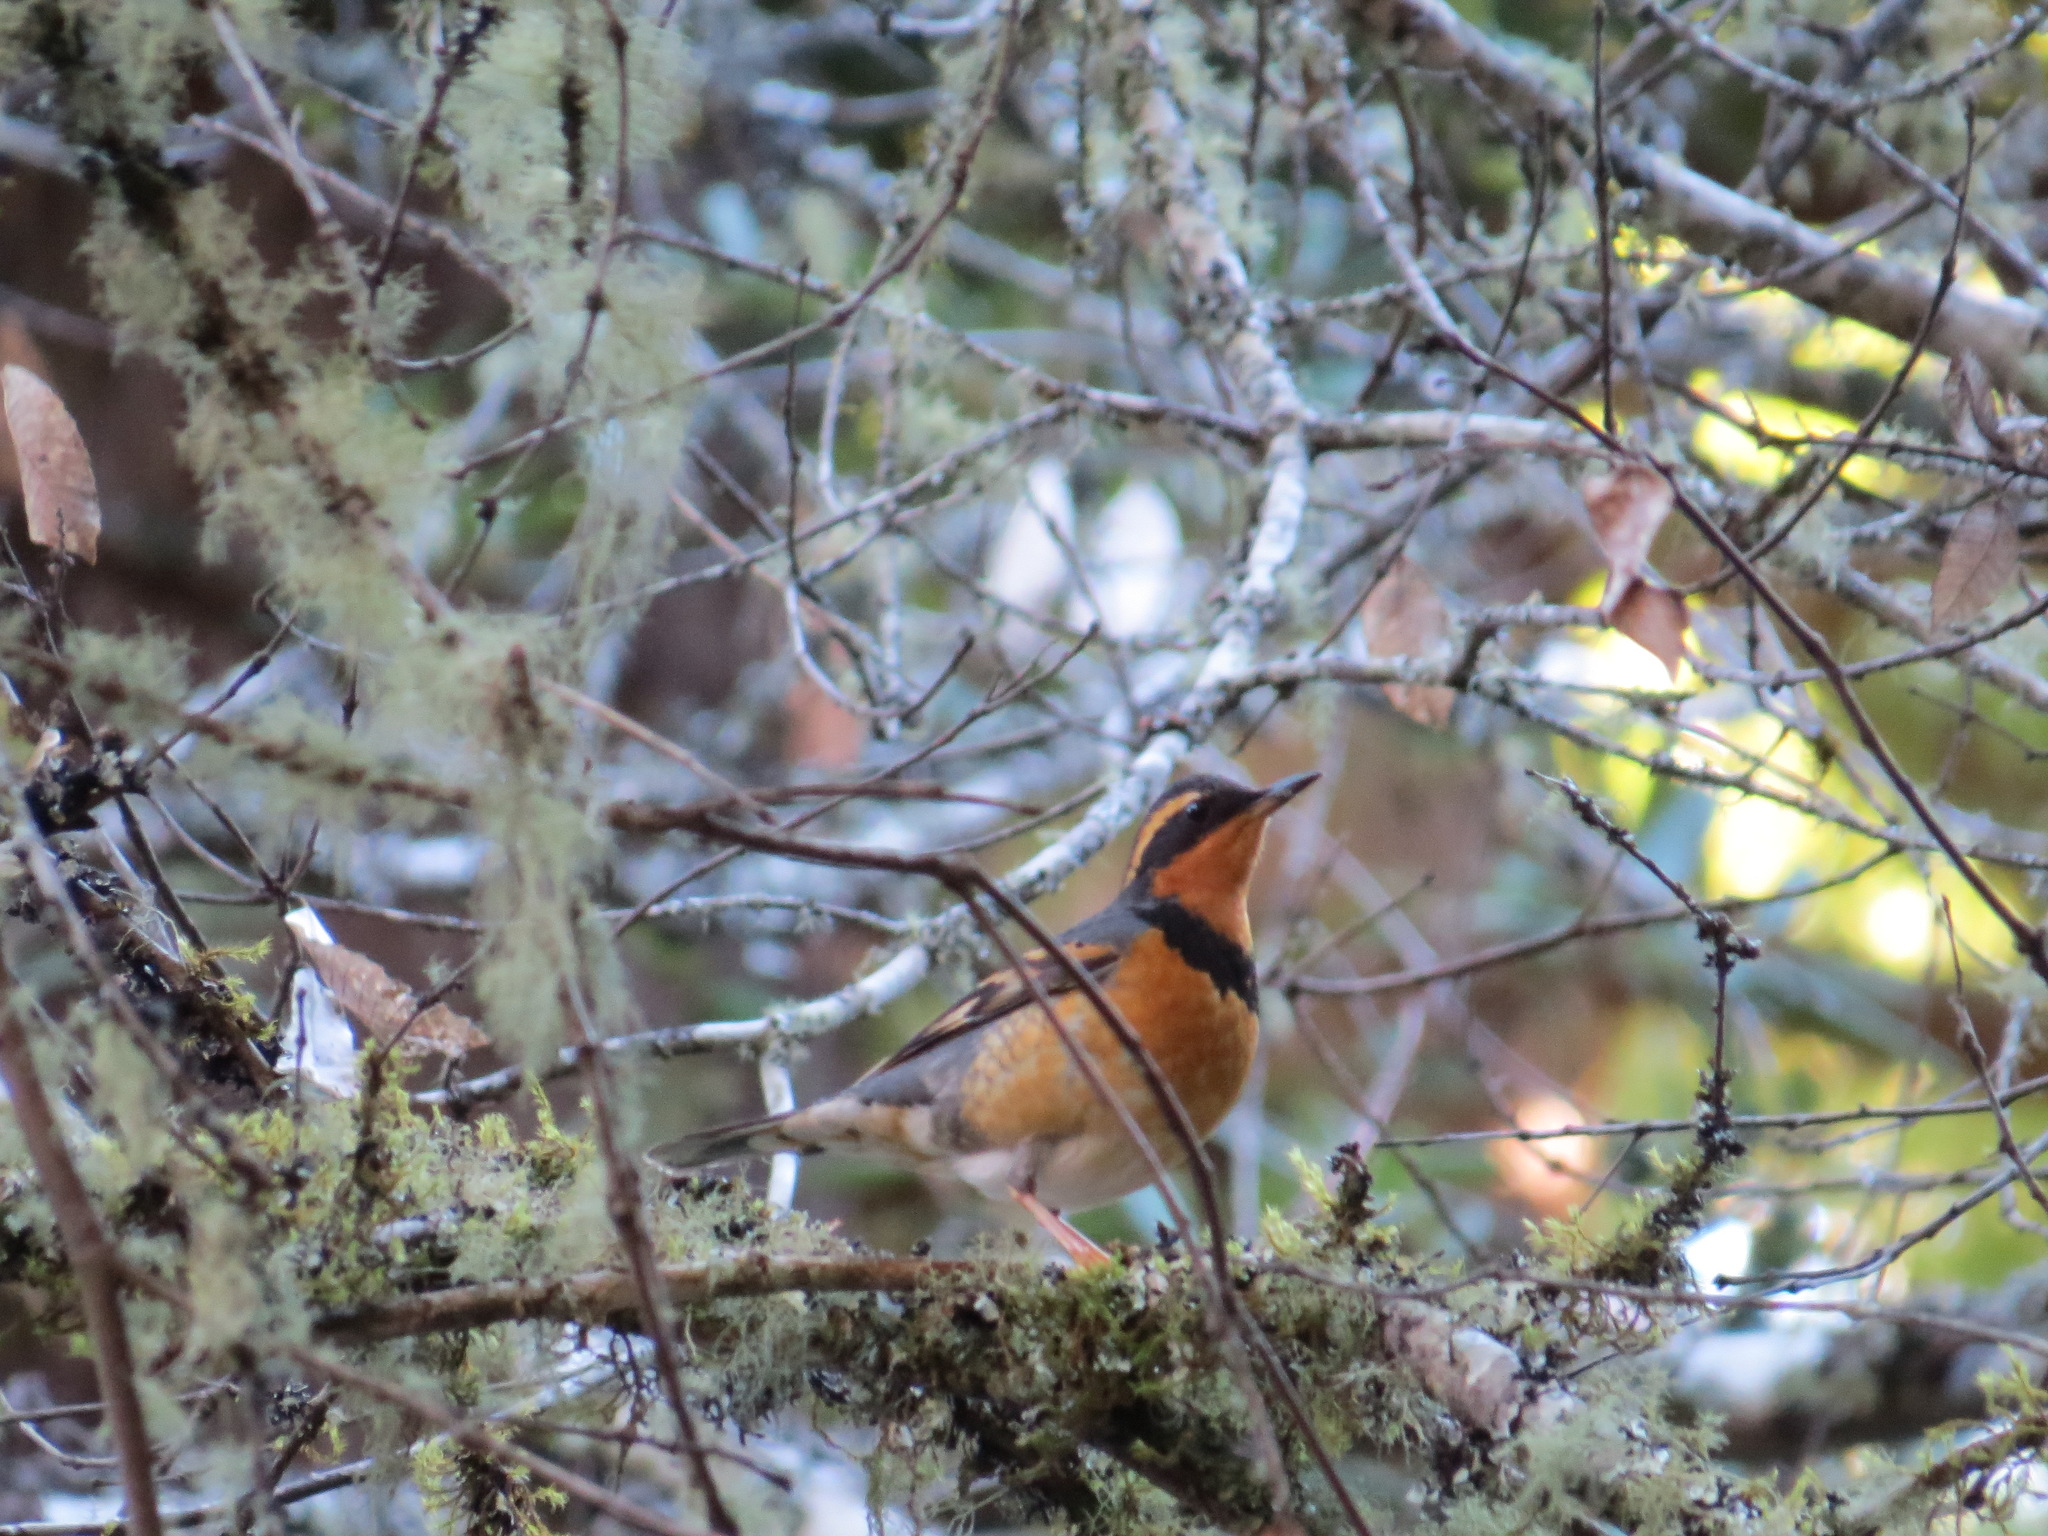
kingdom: Animalia
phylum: Chordata
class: Aves
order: Passeriformes
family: Turdidae
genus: Ixoreus
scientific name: Ixoreus naevius
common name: Varied thrush
